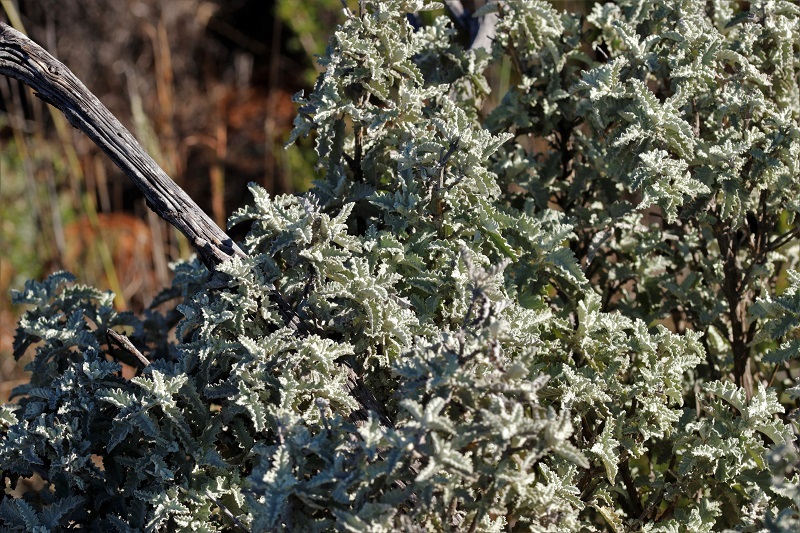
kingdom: Plantae
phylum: Tracheophyta
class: Magnoliopsida
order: Lamiales
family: Scrophulariaceae
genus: Buddleja
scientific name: Buddleja glomerata
